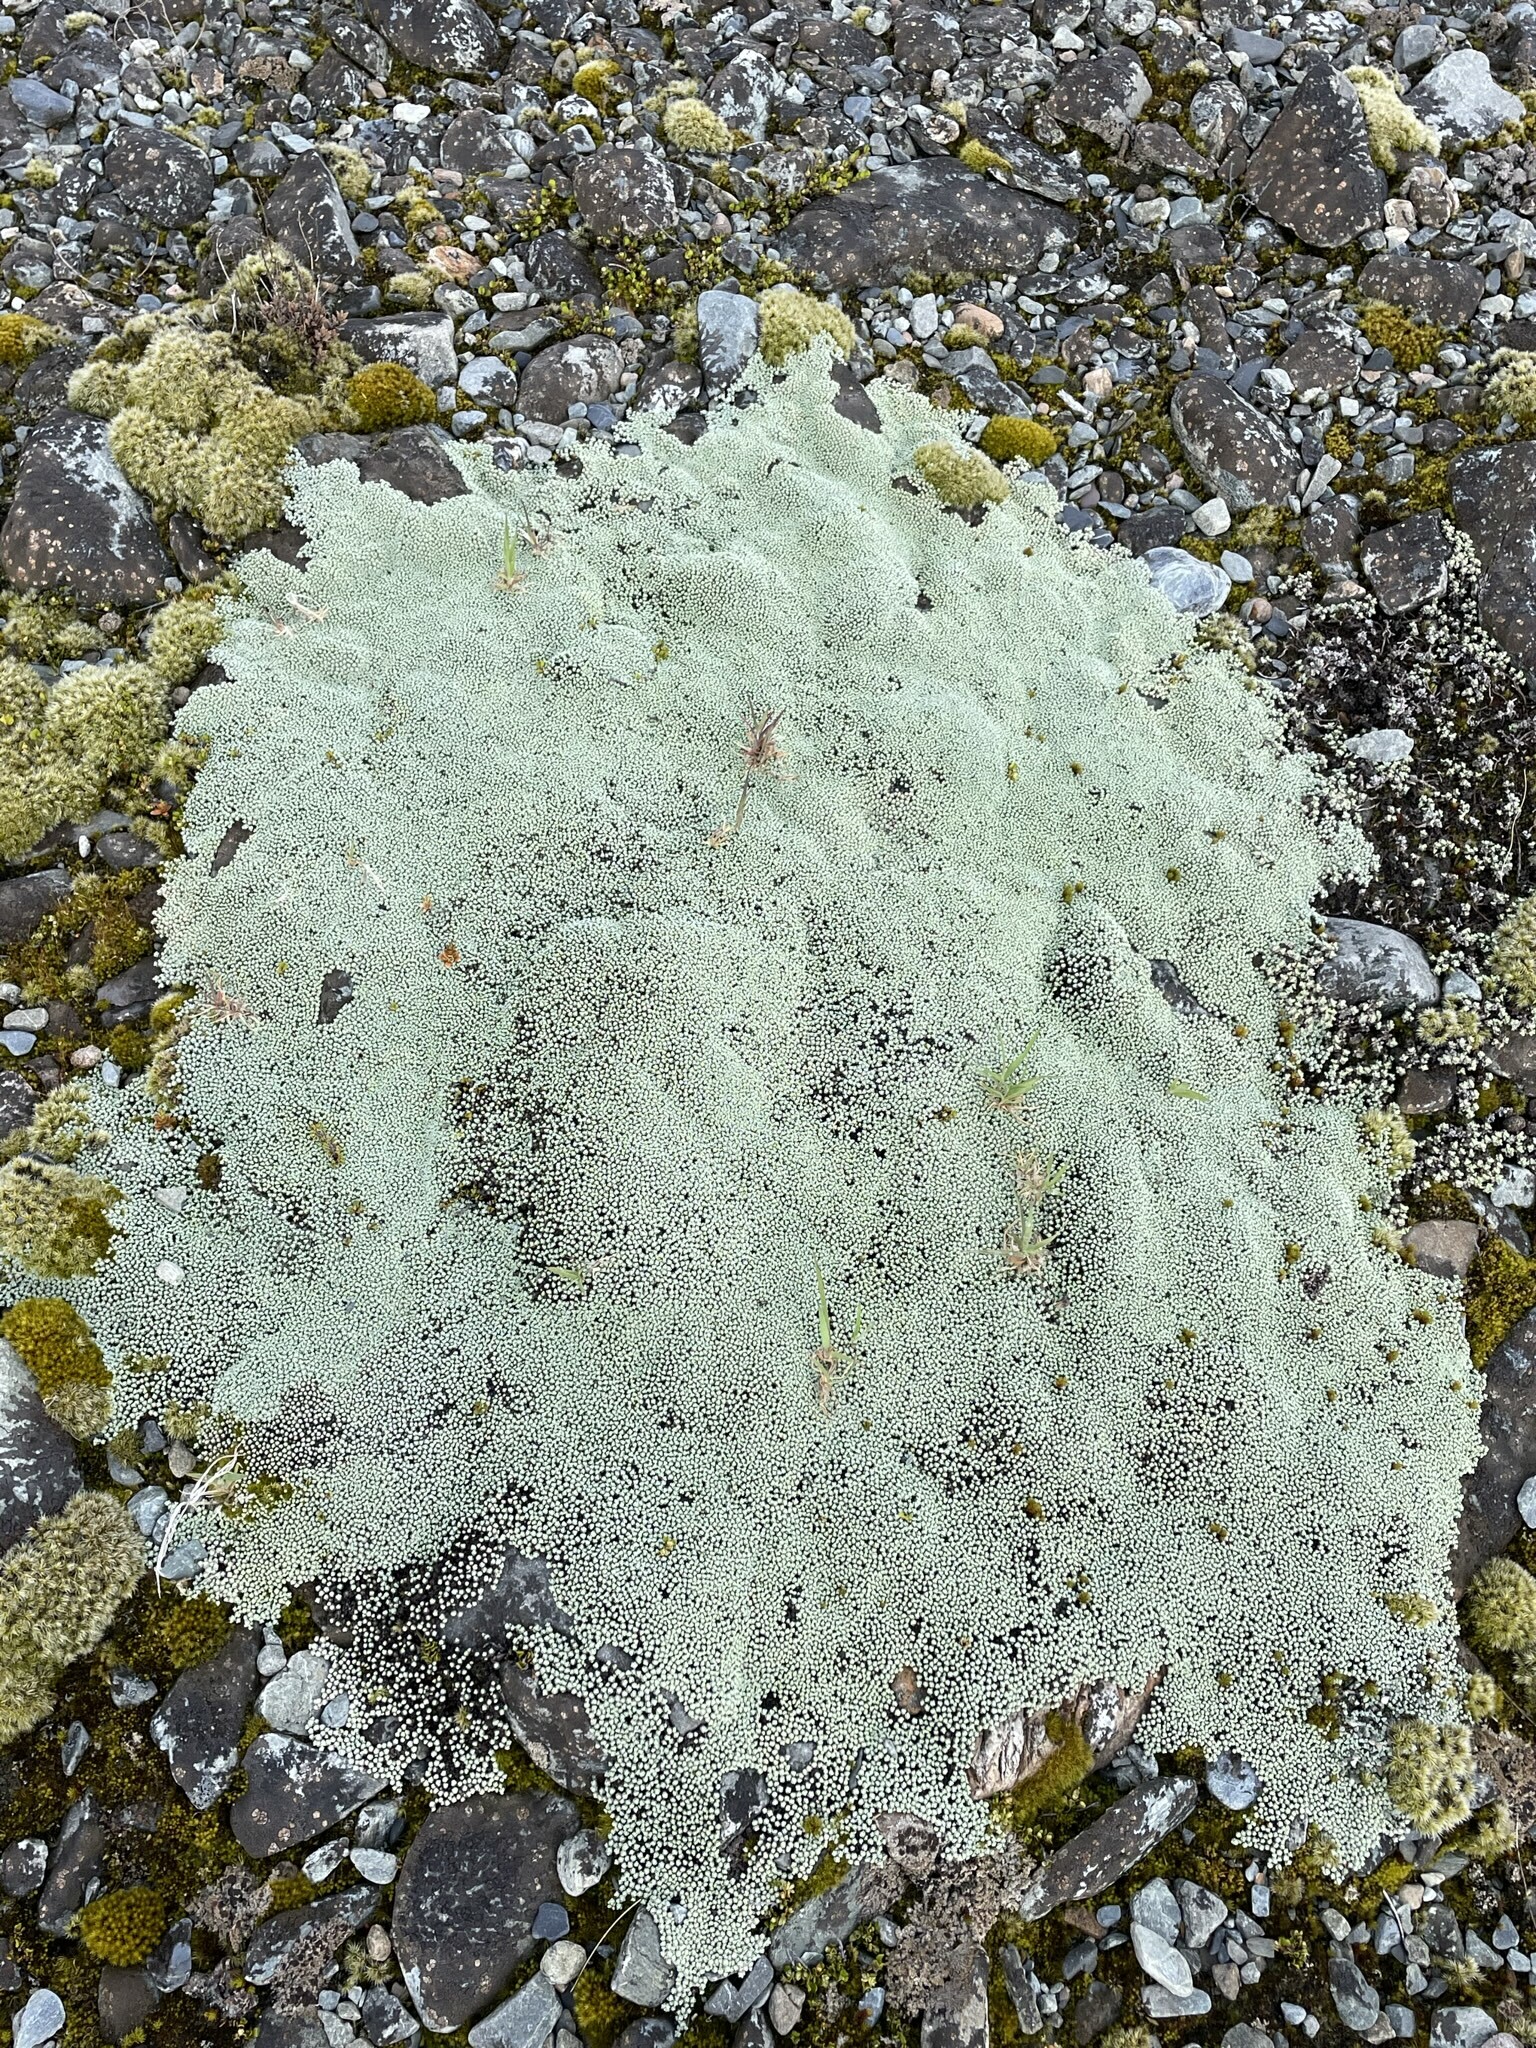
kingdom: Plantae
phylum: Tracheophyta
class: Magnoliopsida
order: Asterales
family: Asteraceae
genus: Raoulia
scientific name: Raoulia australis
